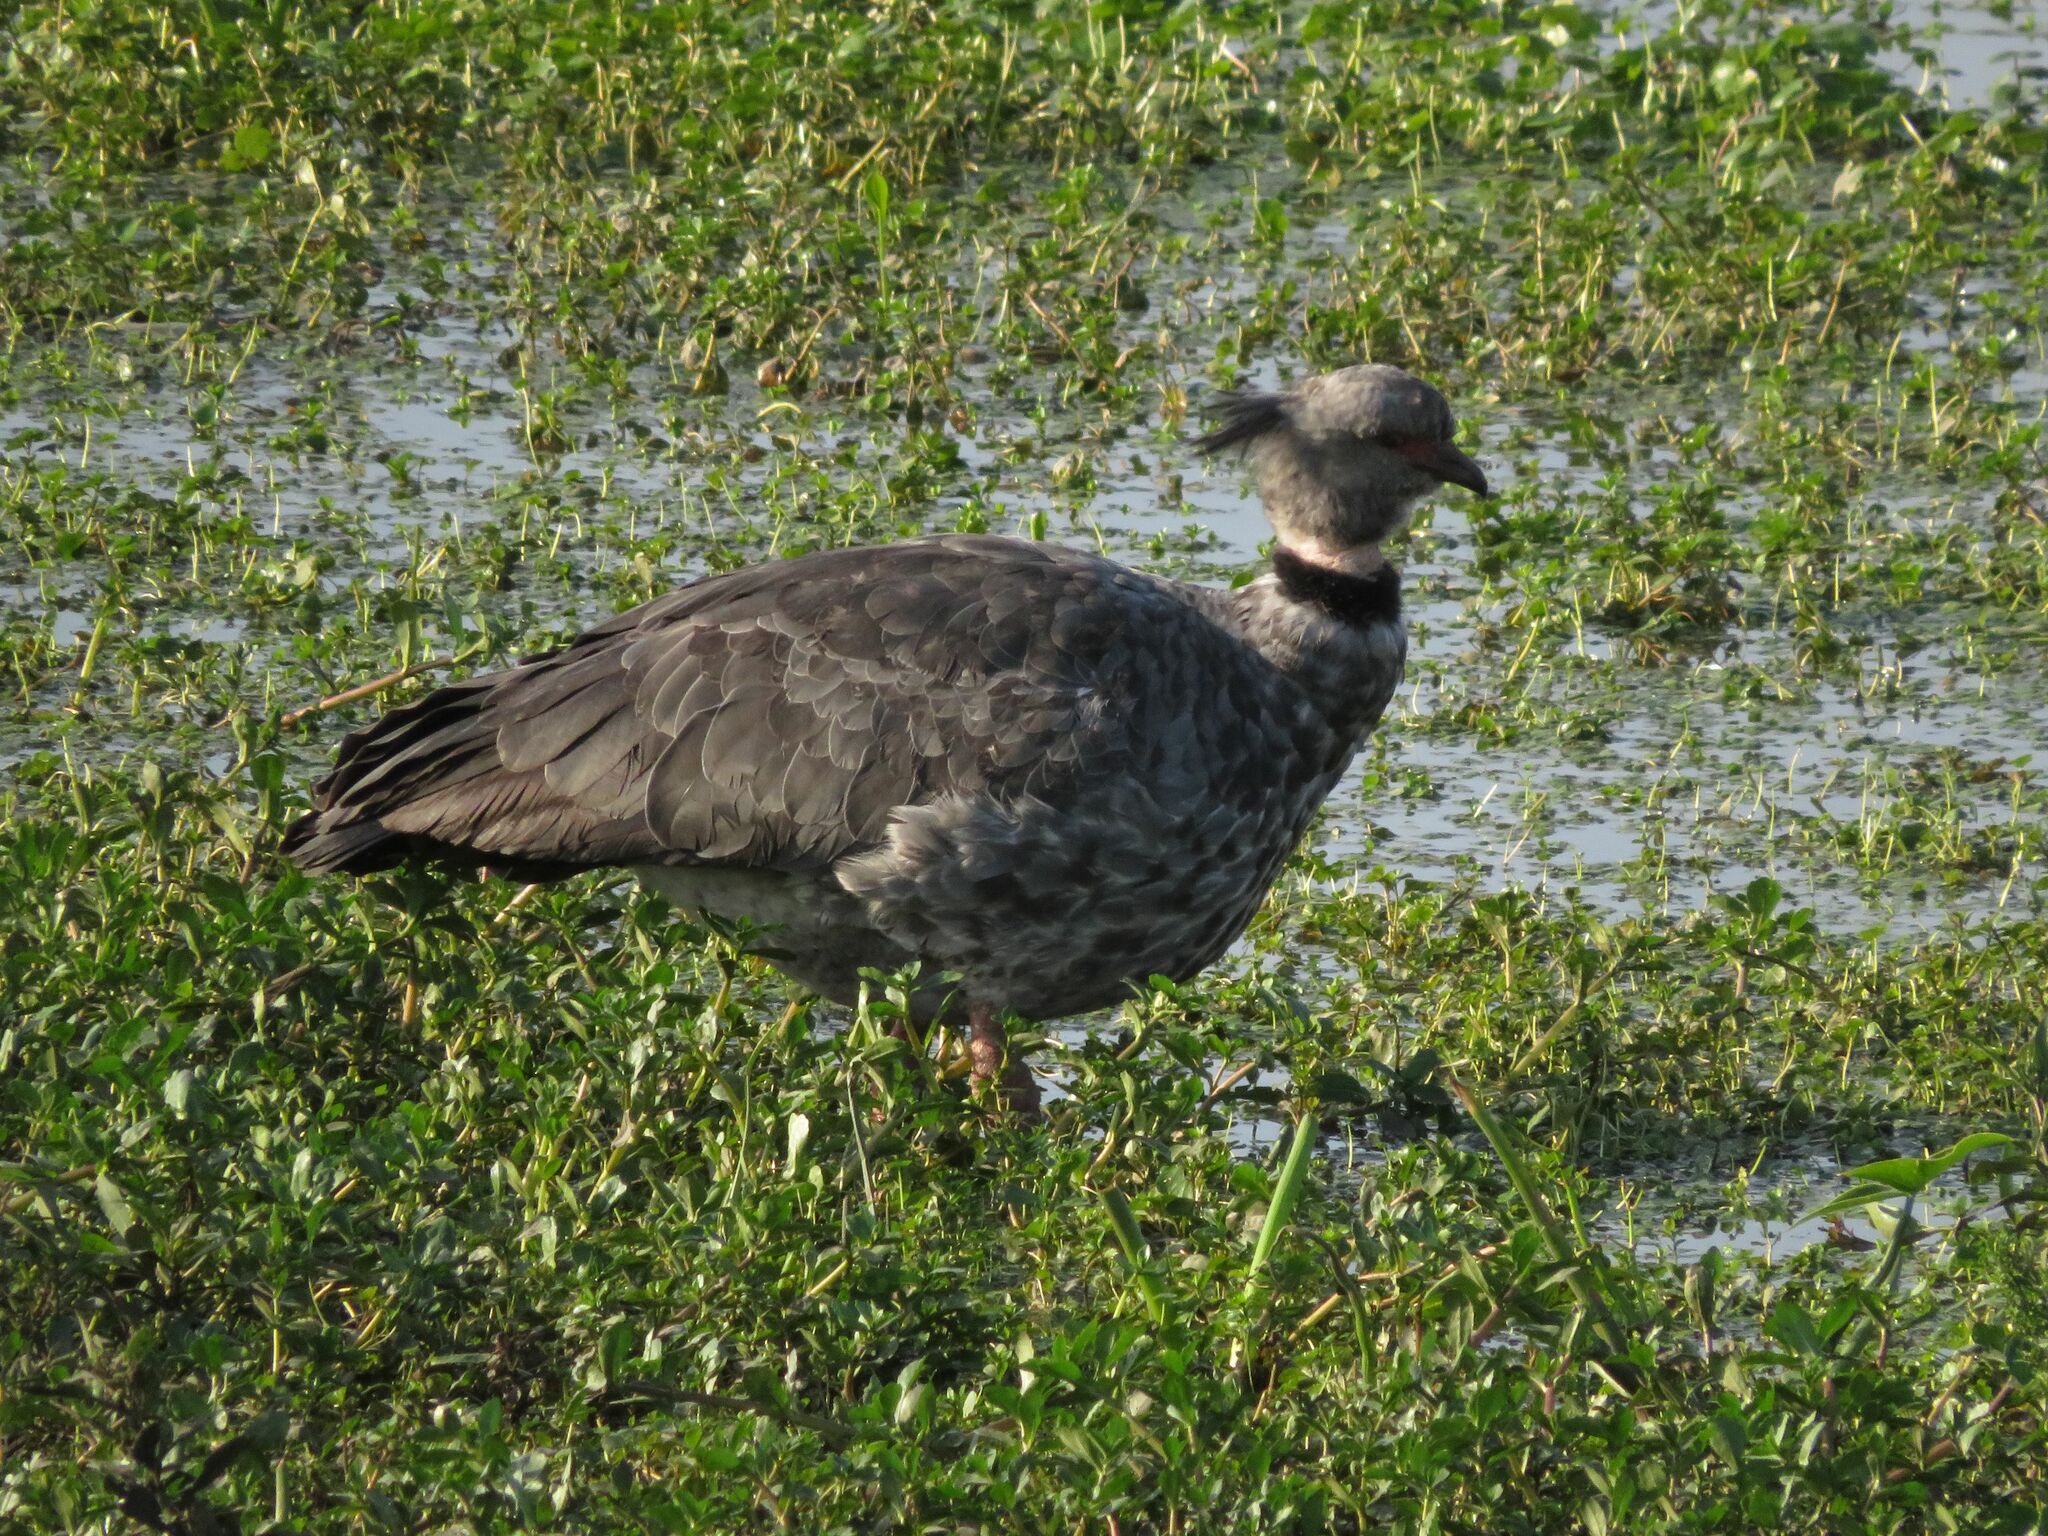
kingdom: Animalia
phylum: Chordata
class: Aves
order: Anseriformes
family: Anhimidae
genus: Chauna
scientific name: Chauna torquata
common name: Southern screamer
